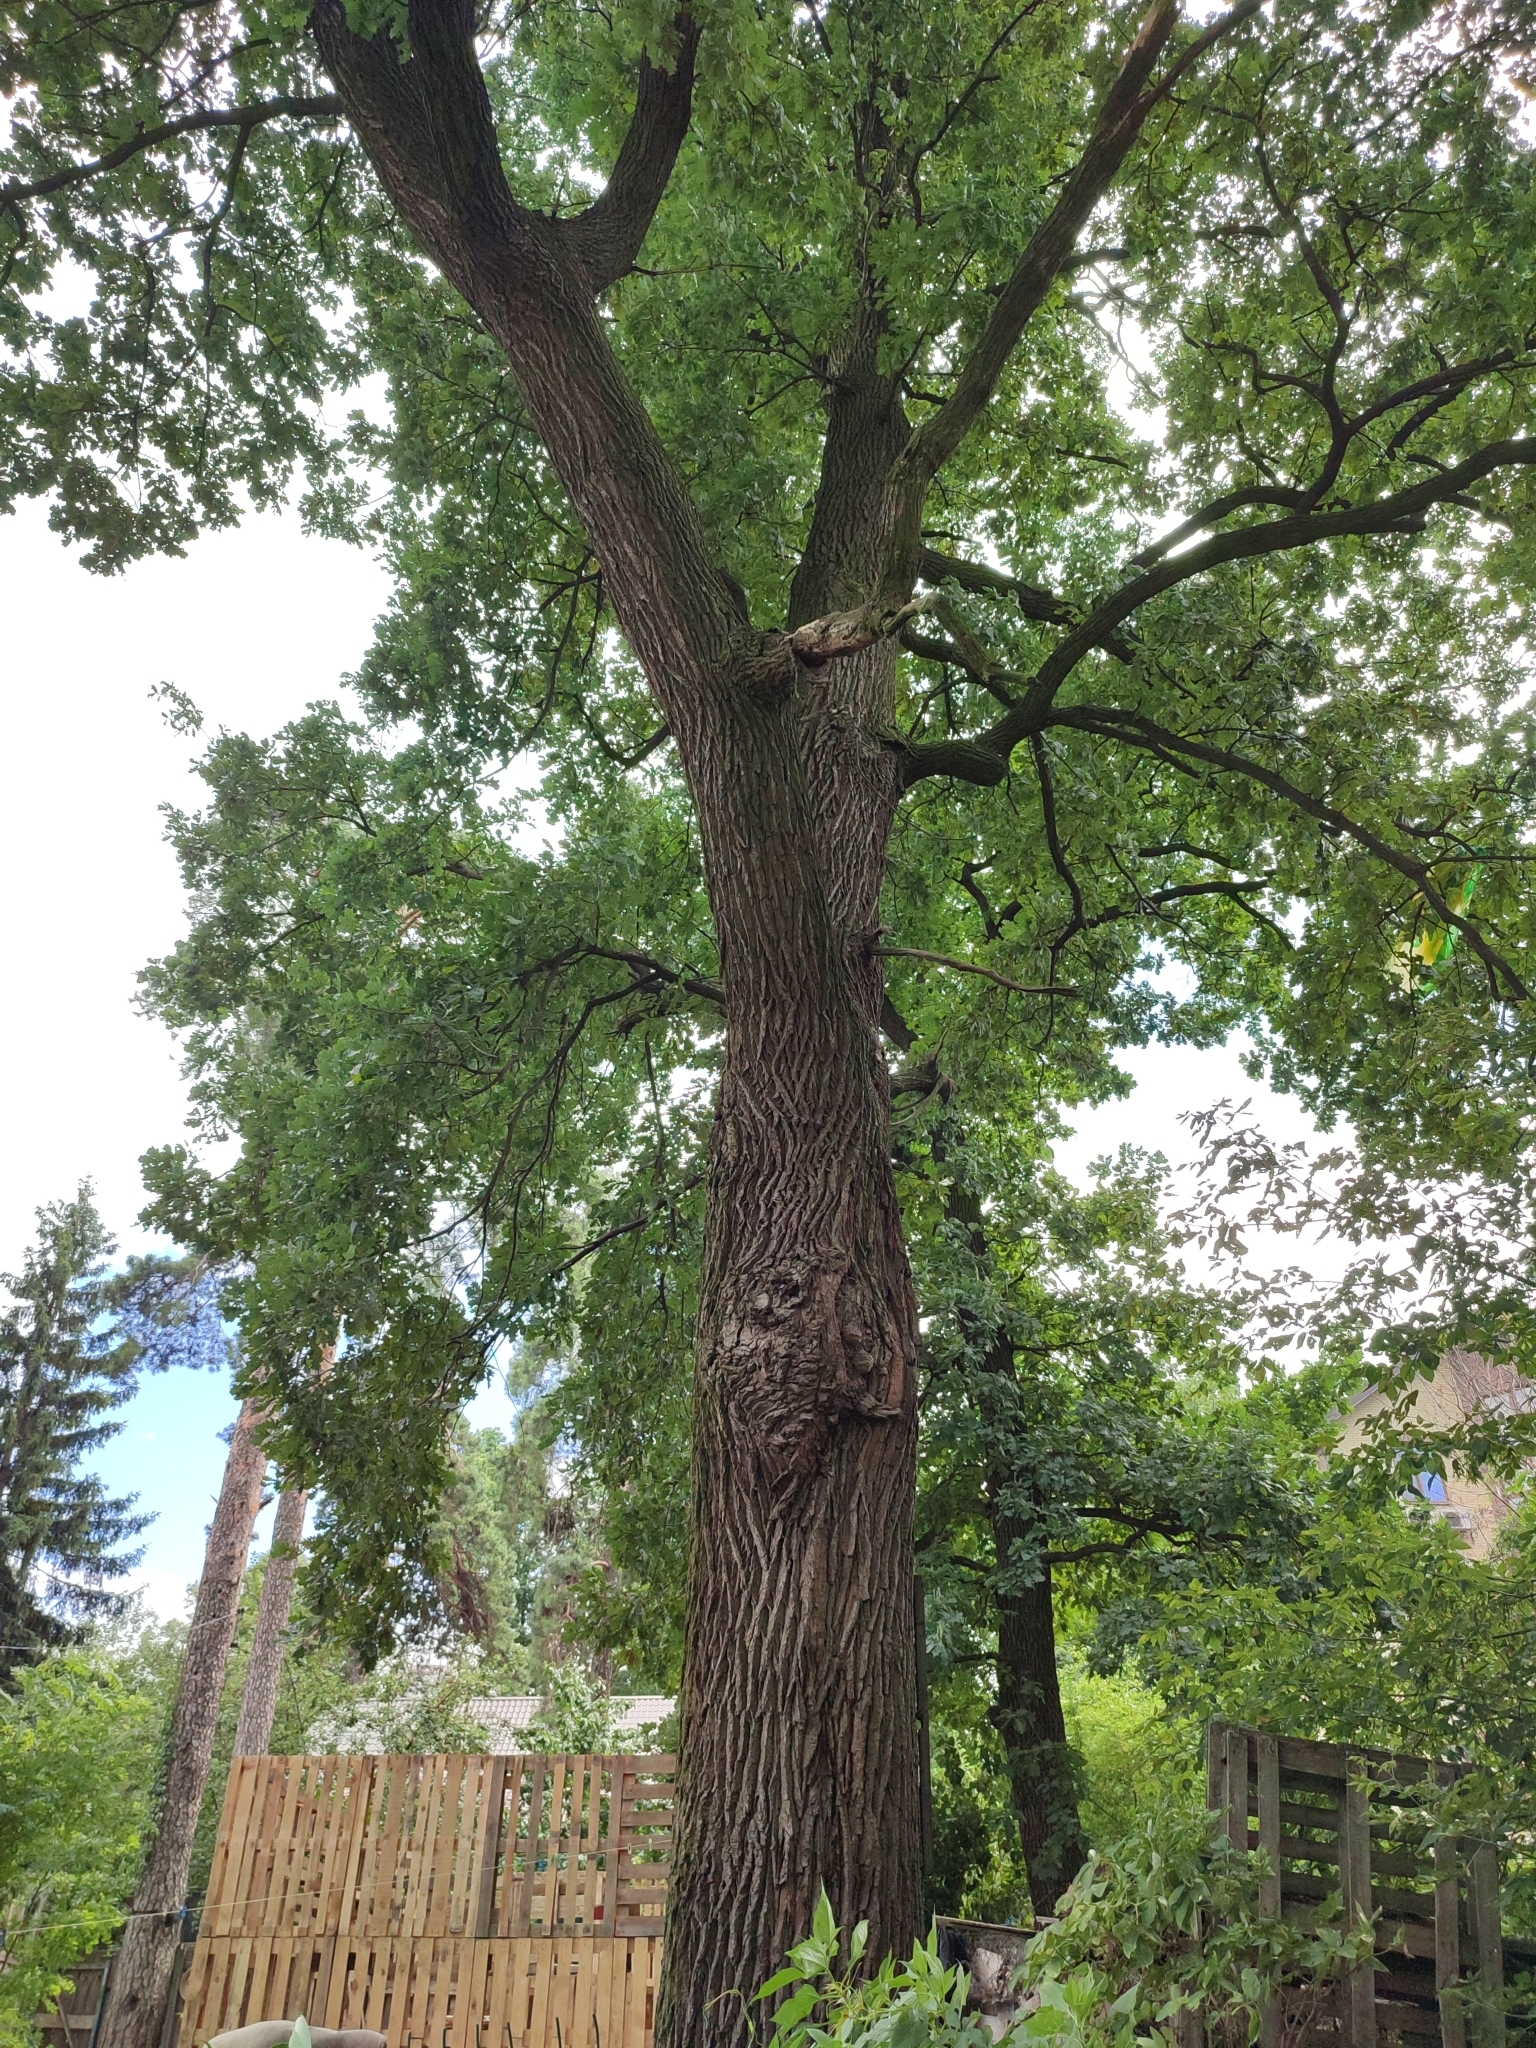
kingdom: Plantae
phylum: Tracheophyta
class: Magnoliopsida
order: Fagales
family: Fagaceae
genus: Quercus
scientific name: Quercus robur
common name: Pedunculate oak
